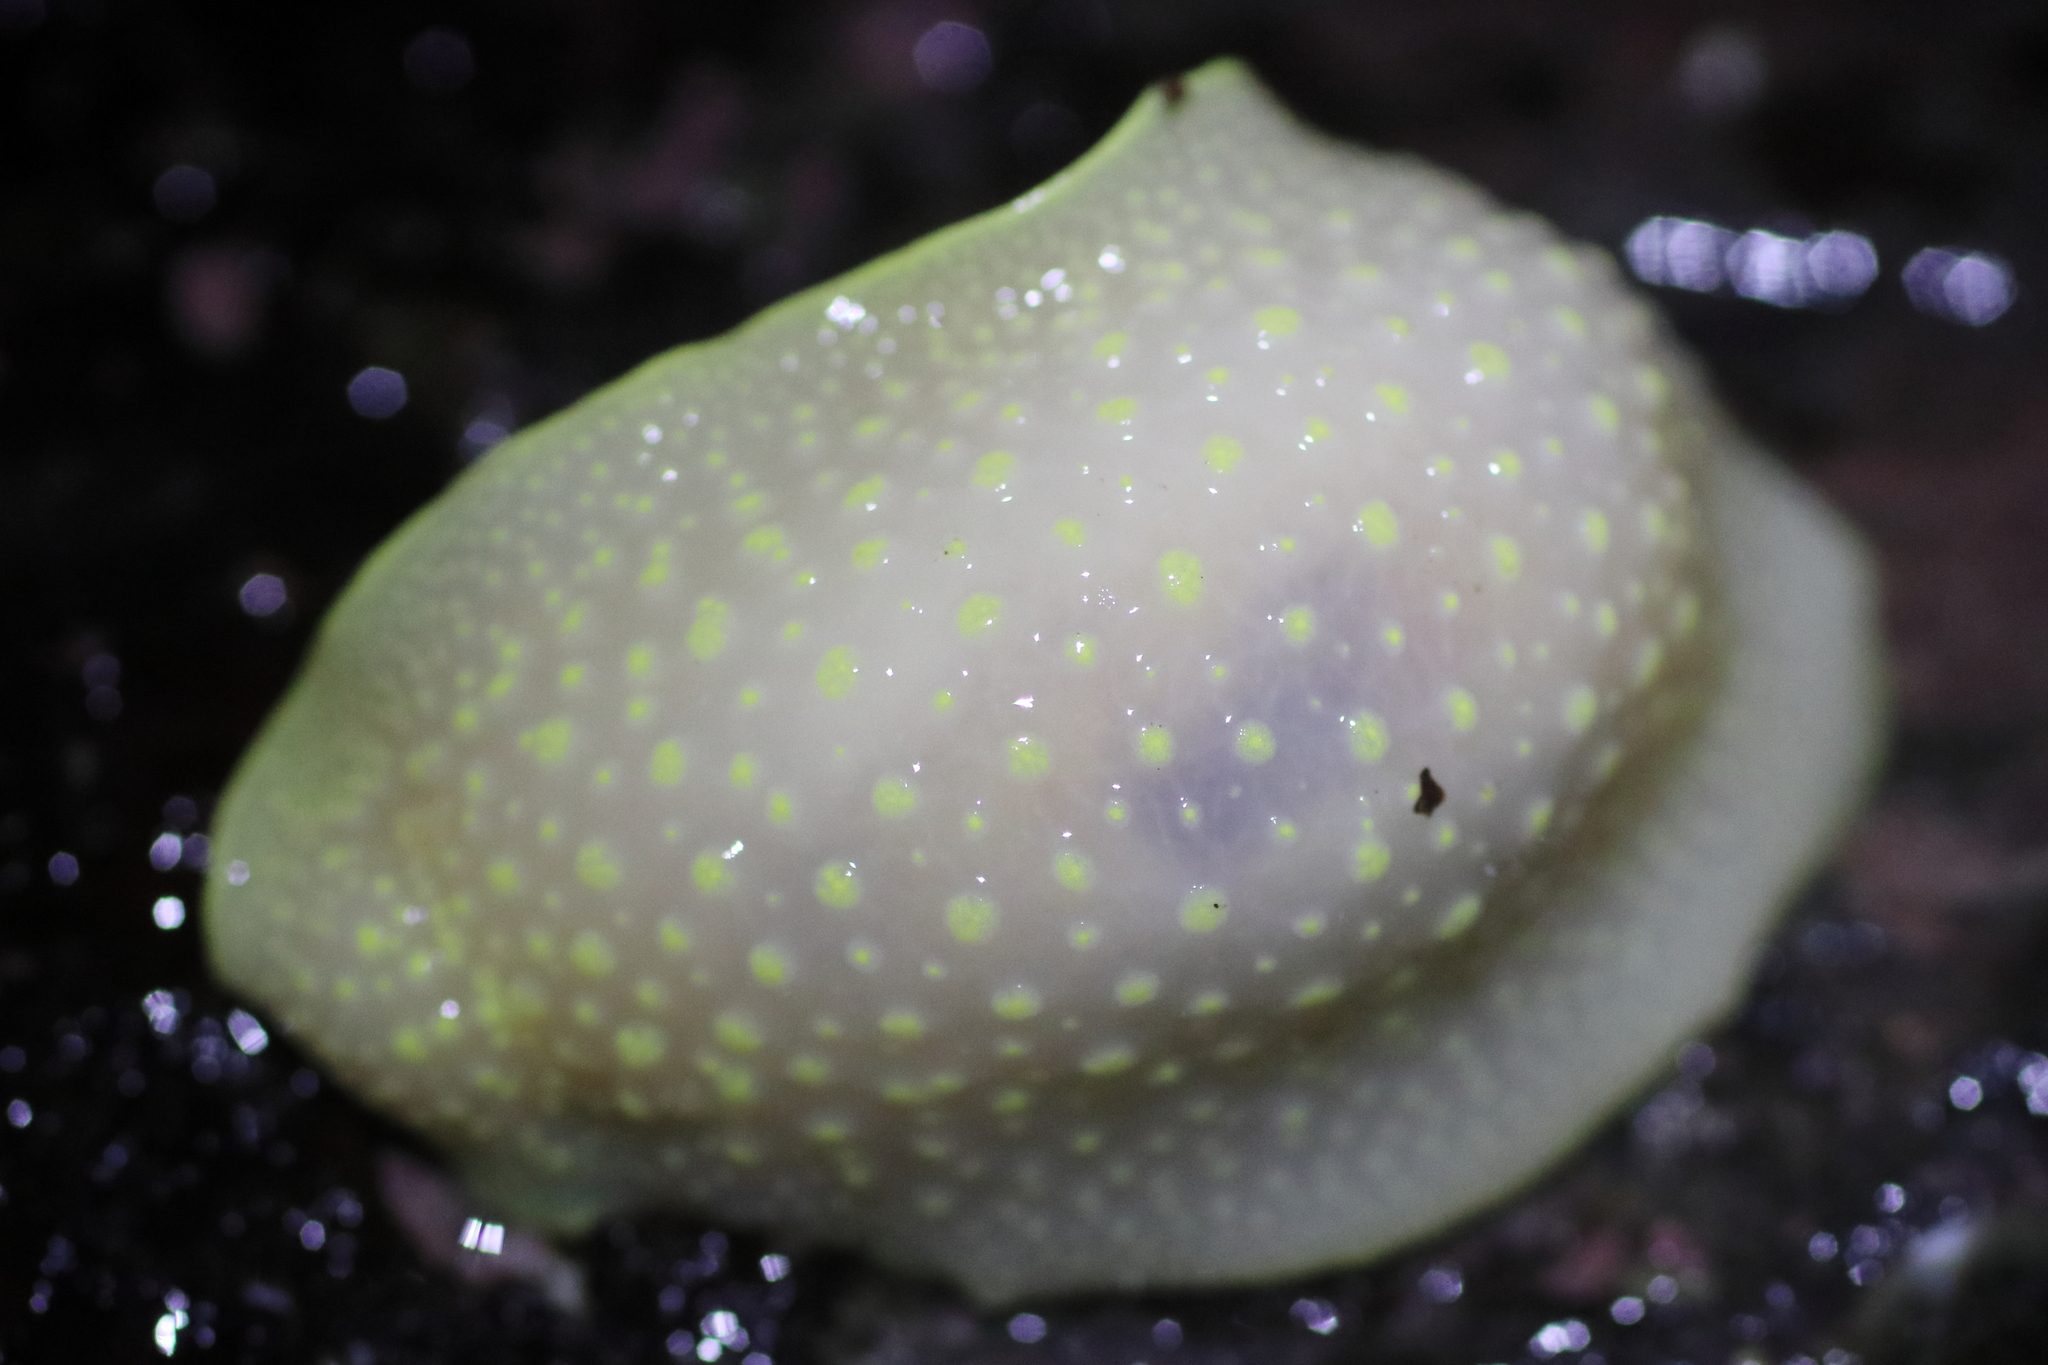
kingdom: Animalia
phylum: Mollusca
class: Gastropoda
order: Nudibranchia
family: Cadlinidae
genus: Cadlina
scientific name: Cadlina luteomarginata
